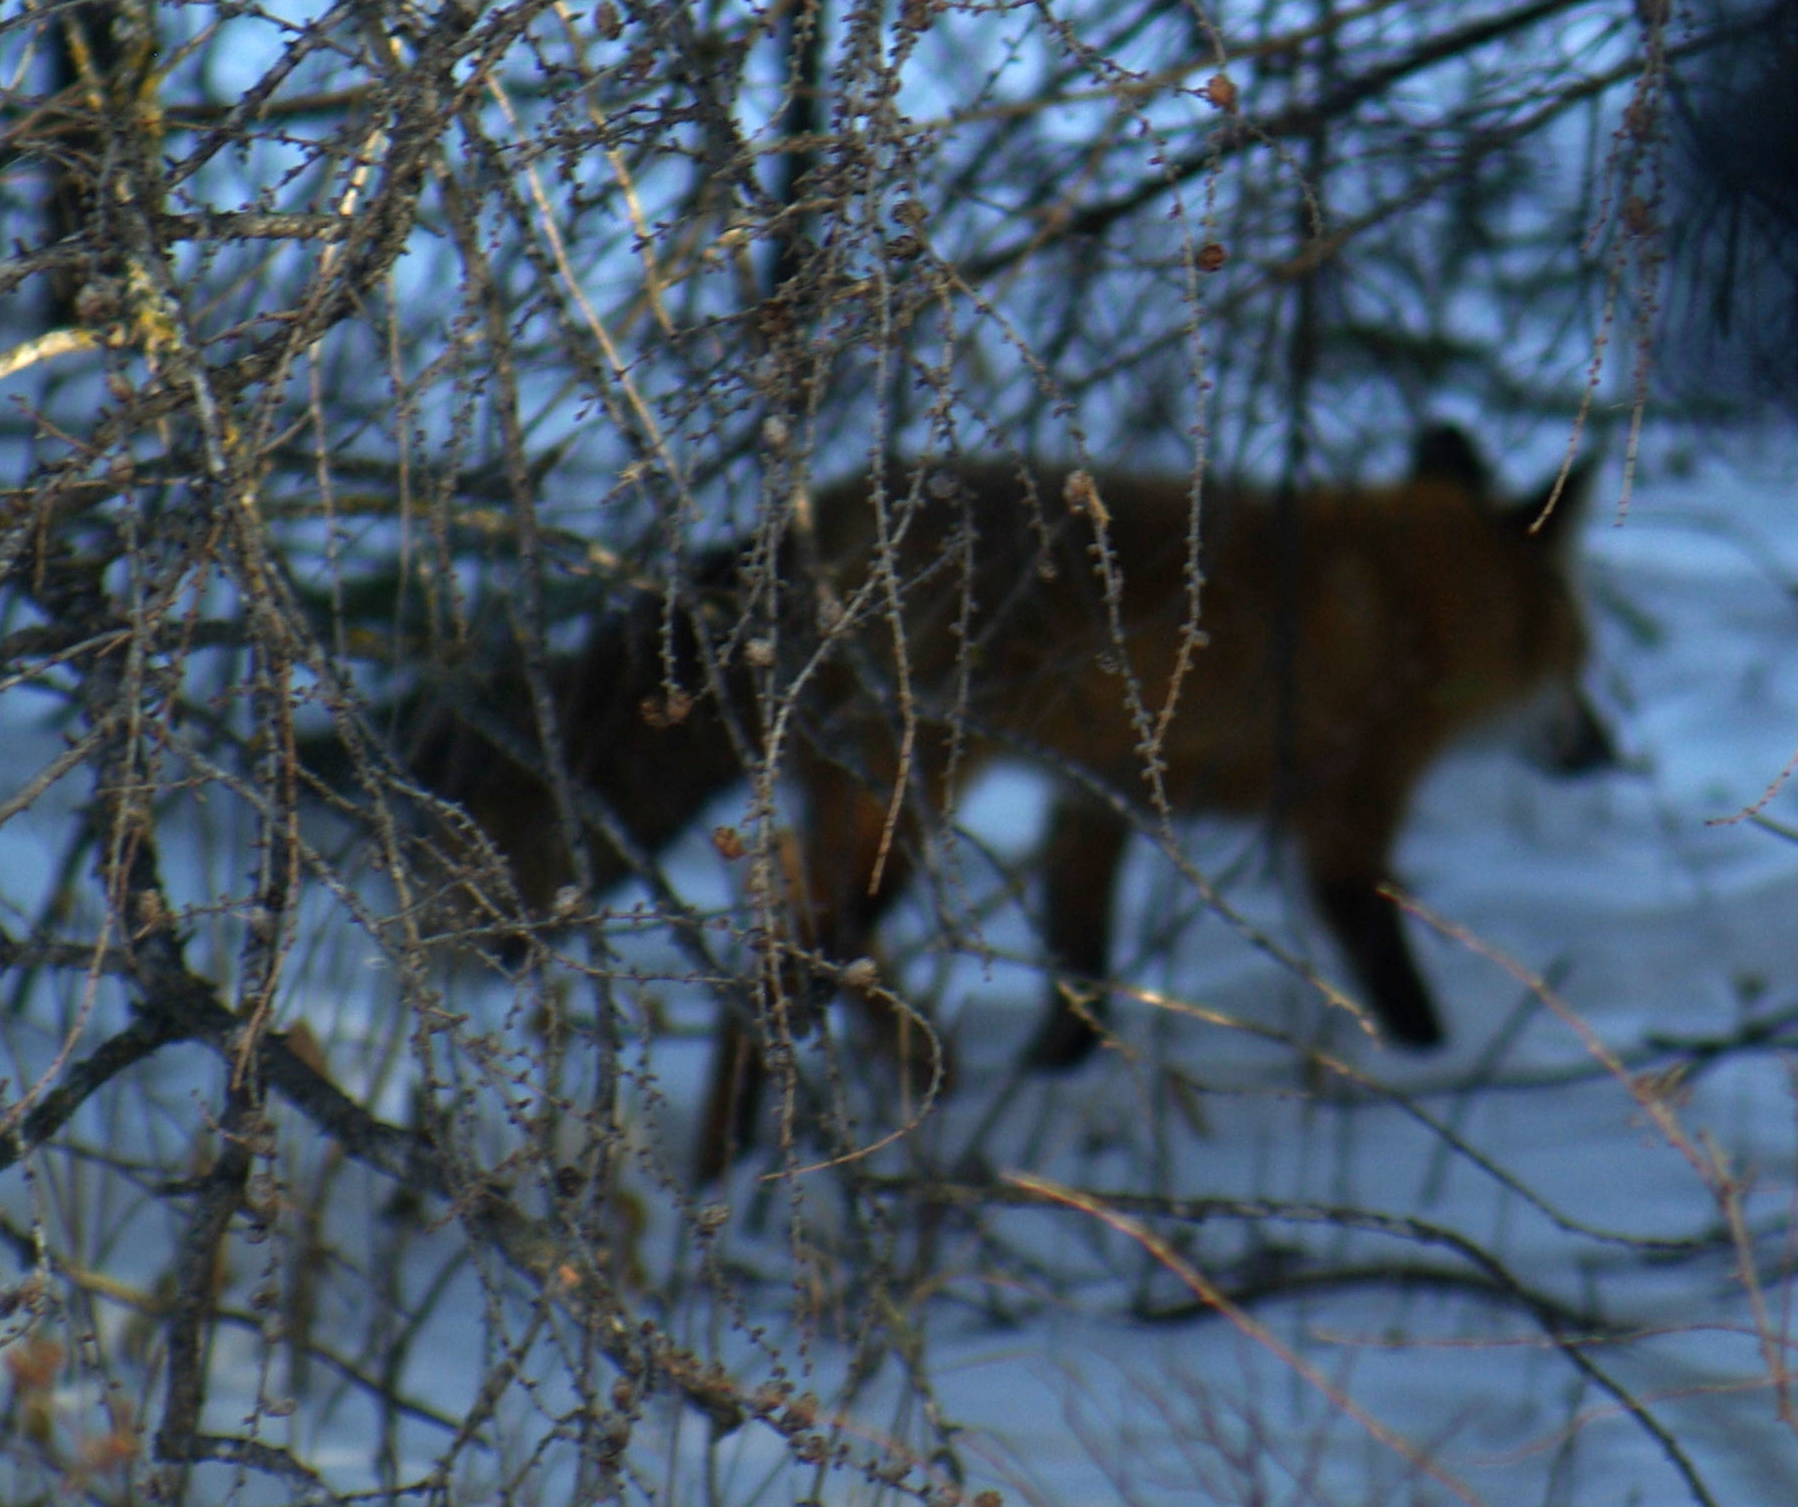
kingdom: Animalia
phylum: Chordata
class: Mammalia
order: Carnivora
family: Canidae
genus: Vulpes
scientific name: Vulpes vulpes
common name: Red fox
